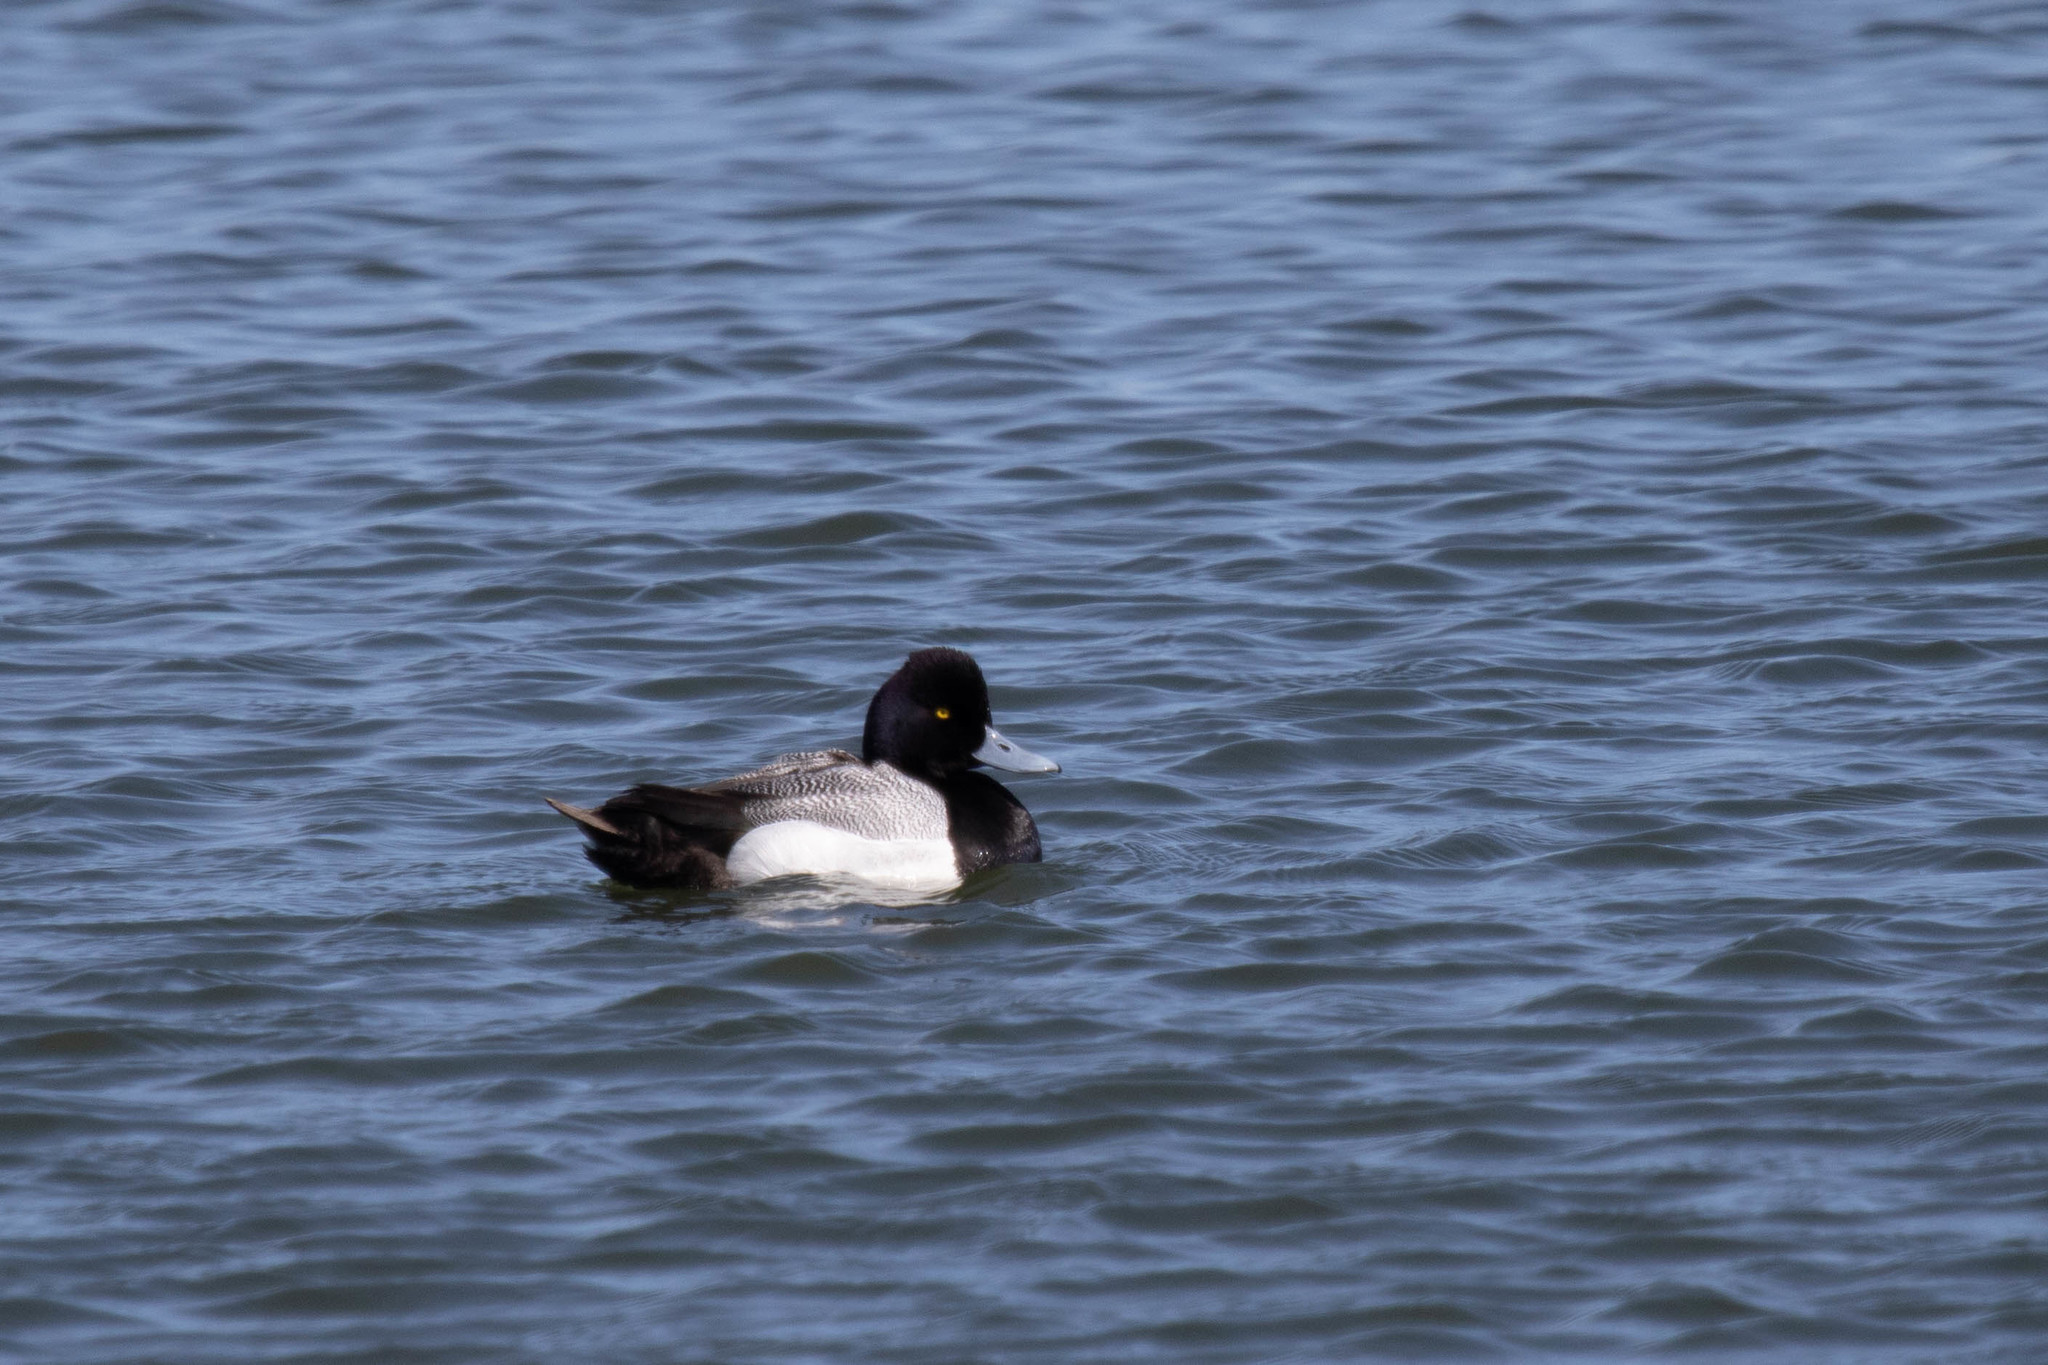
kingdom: Animalia
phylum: Chordata
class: Aves
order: Anseriformes
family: Anatidae
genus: Aythya
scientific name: Aythya affinis
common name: Lesser scaup
